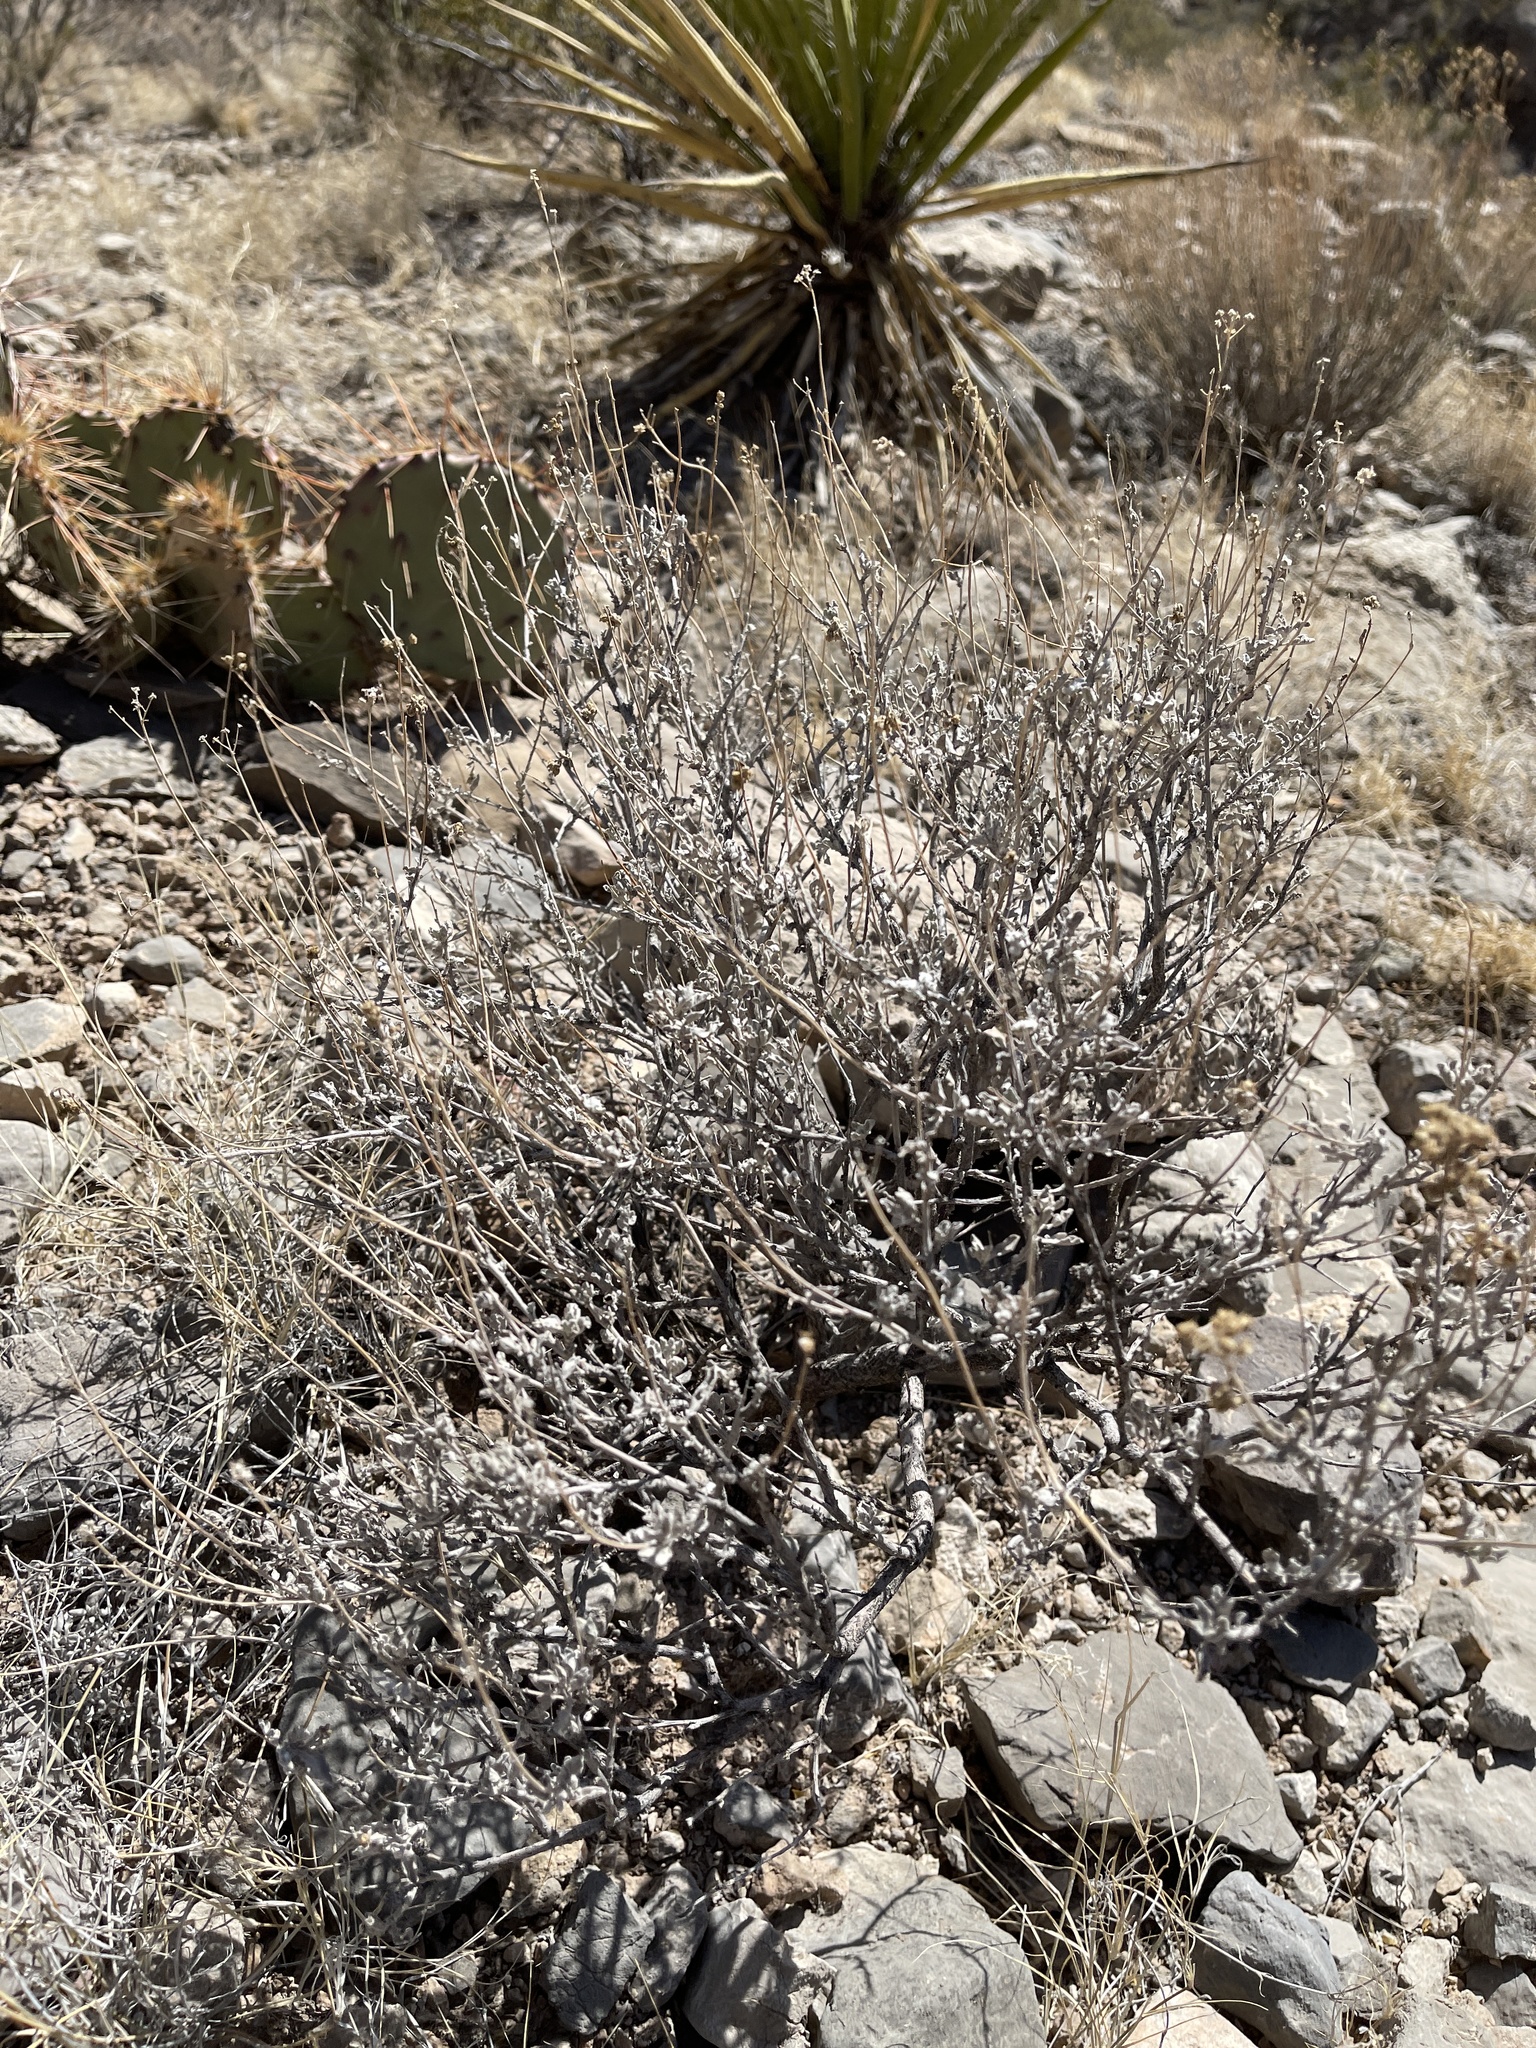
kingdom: Plantae
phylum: Tracheophyta
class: Magnoliopsida
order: Asterales
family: Asteraceae
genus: Parthenium
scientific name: Parthenium incanum
